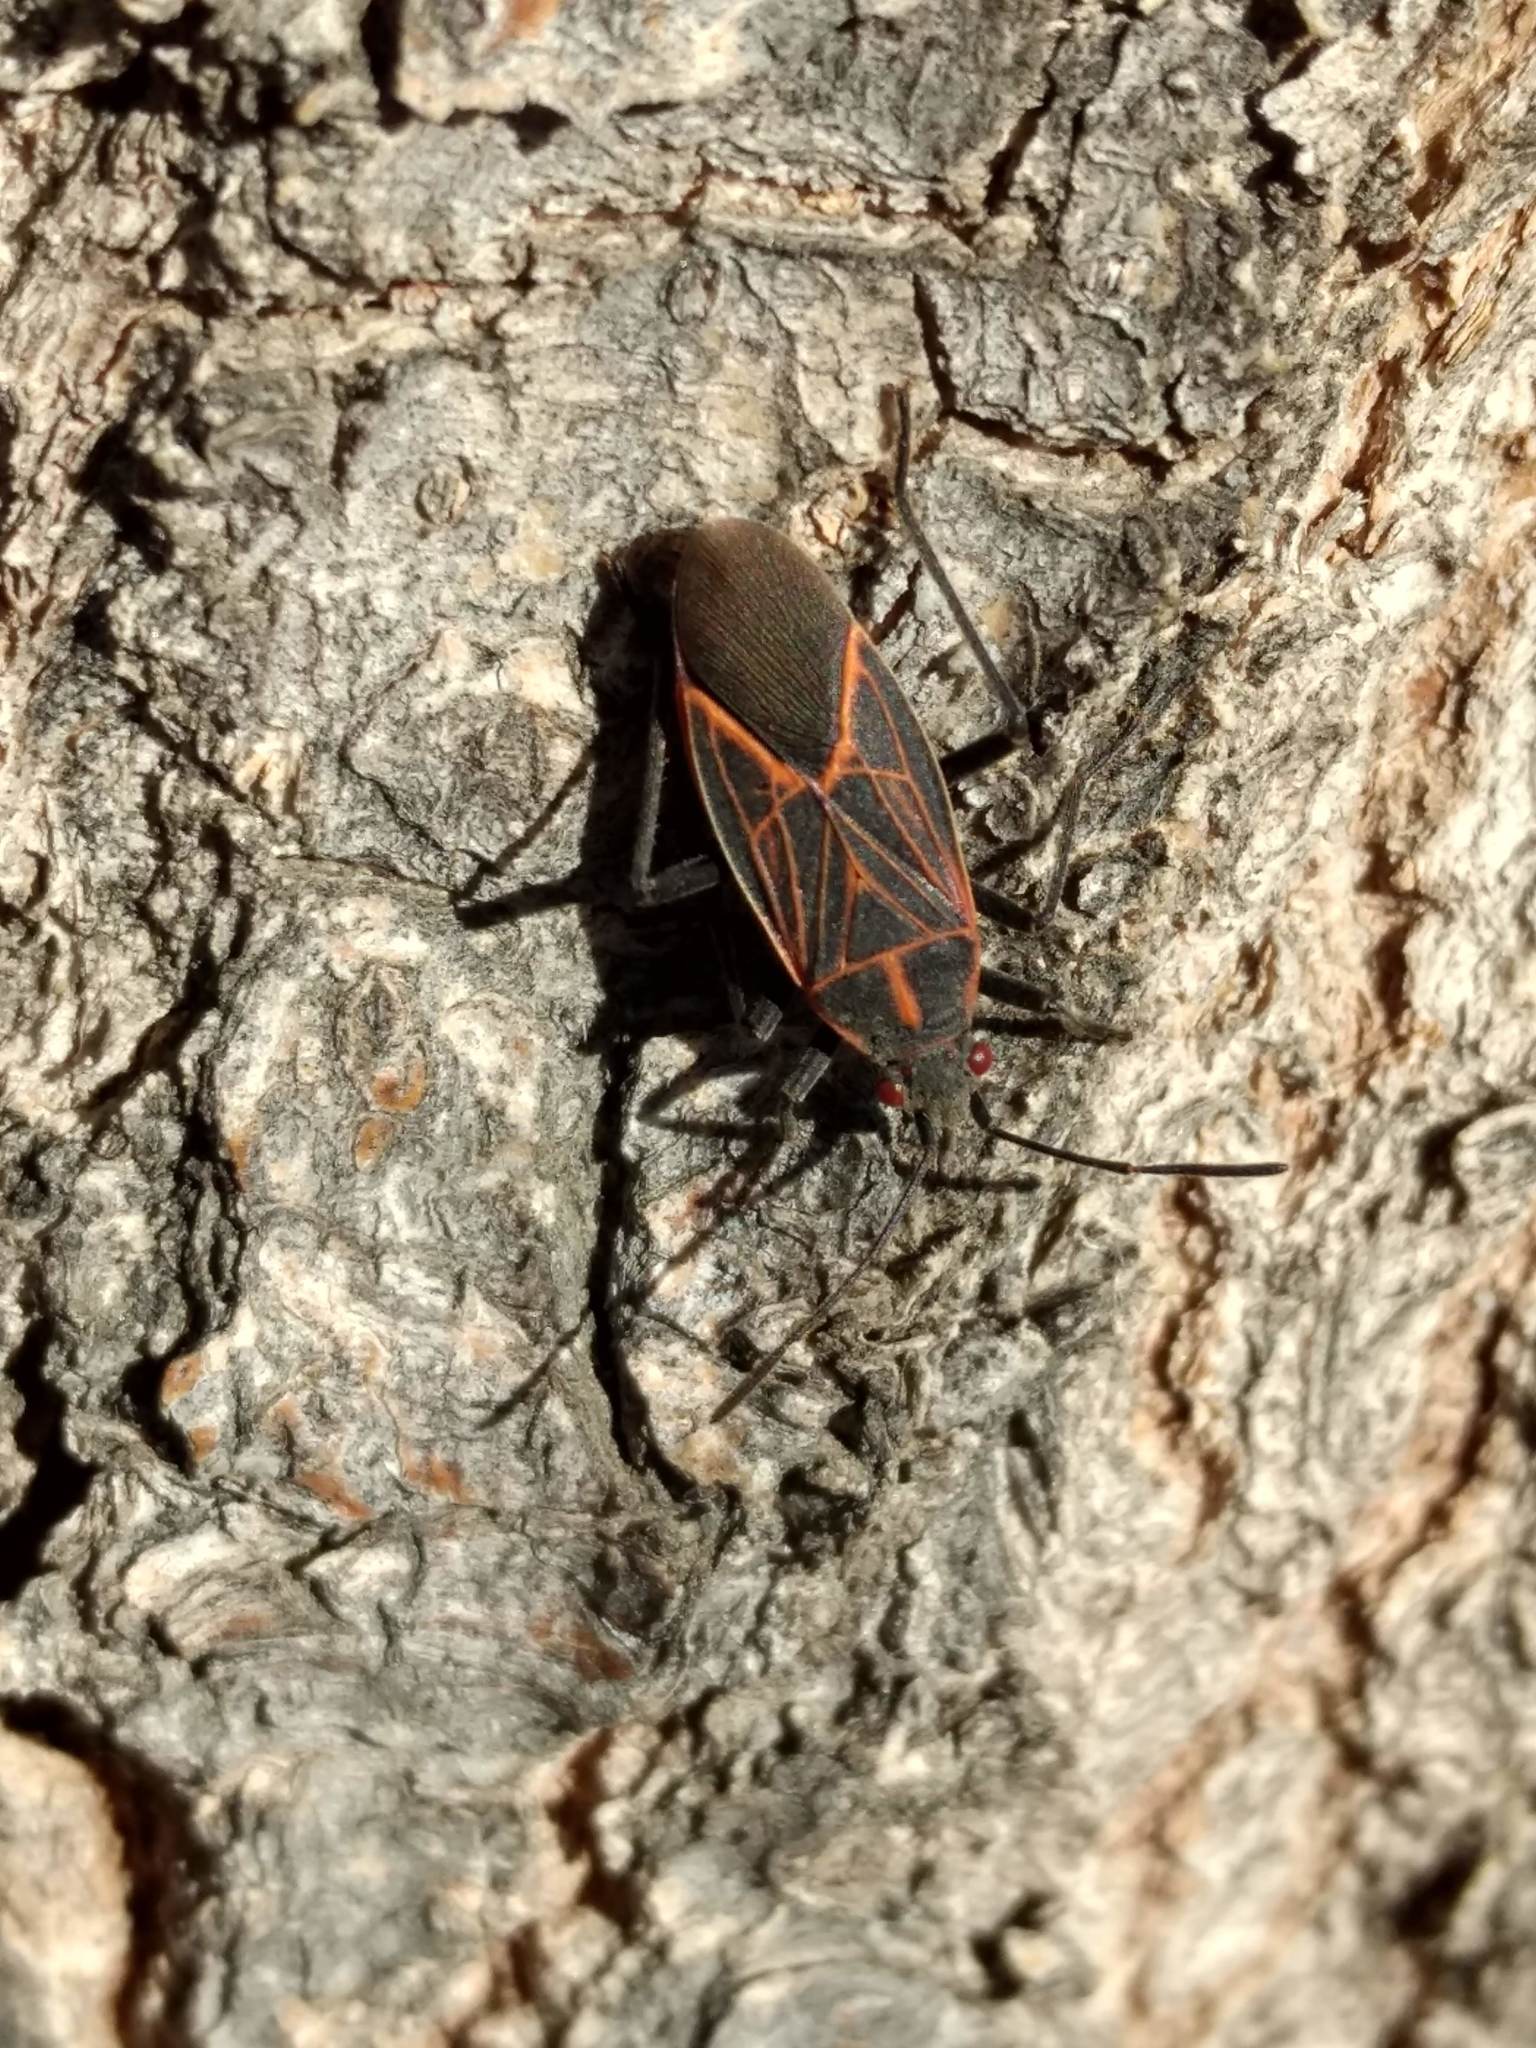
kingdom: Animalia
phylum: Arthropoda
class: Insecta
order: Hemiptera
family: Rhopalidae
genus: Boisea
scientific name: Boisea rubrolineata
